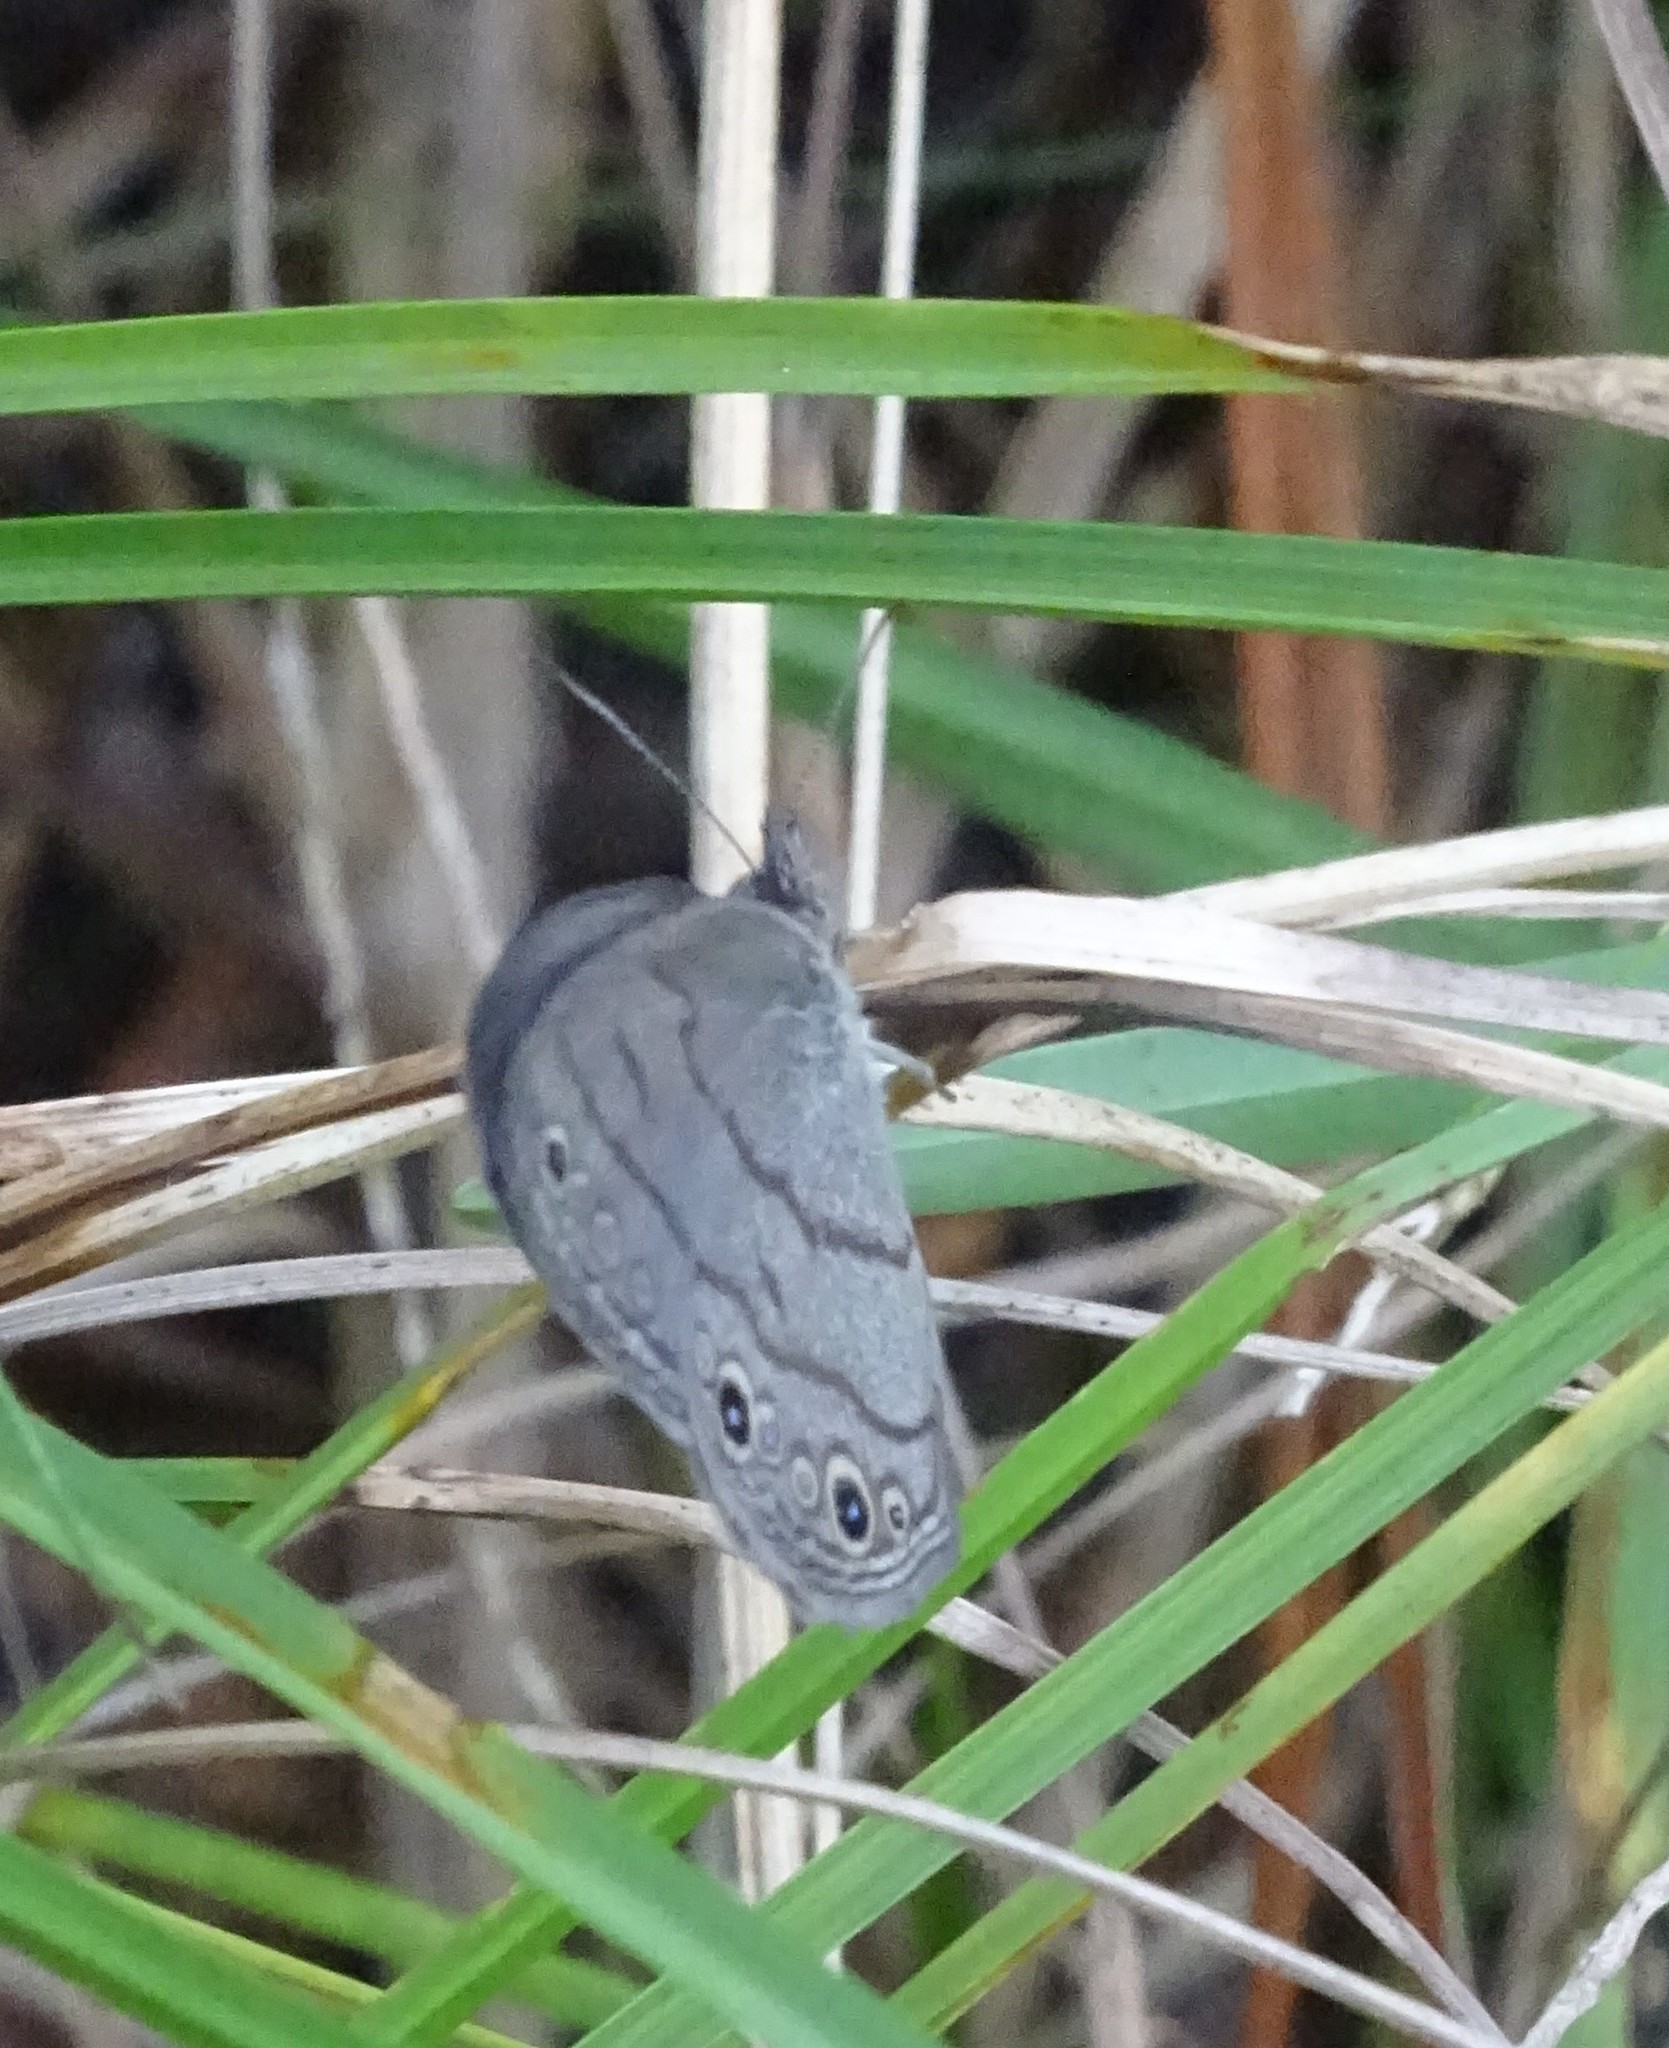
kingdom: Animalia
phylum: Arthropoda
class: Insecta
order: Lepidoptera
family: Nymphalidae
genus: Hermeuptychia
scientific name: Hermeuptychia hermes
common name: Hermes satyr
